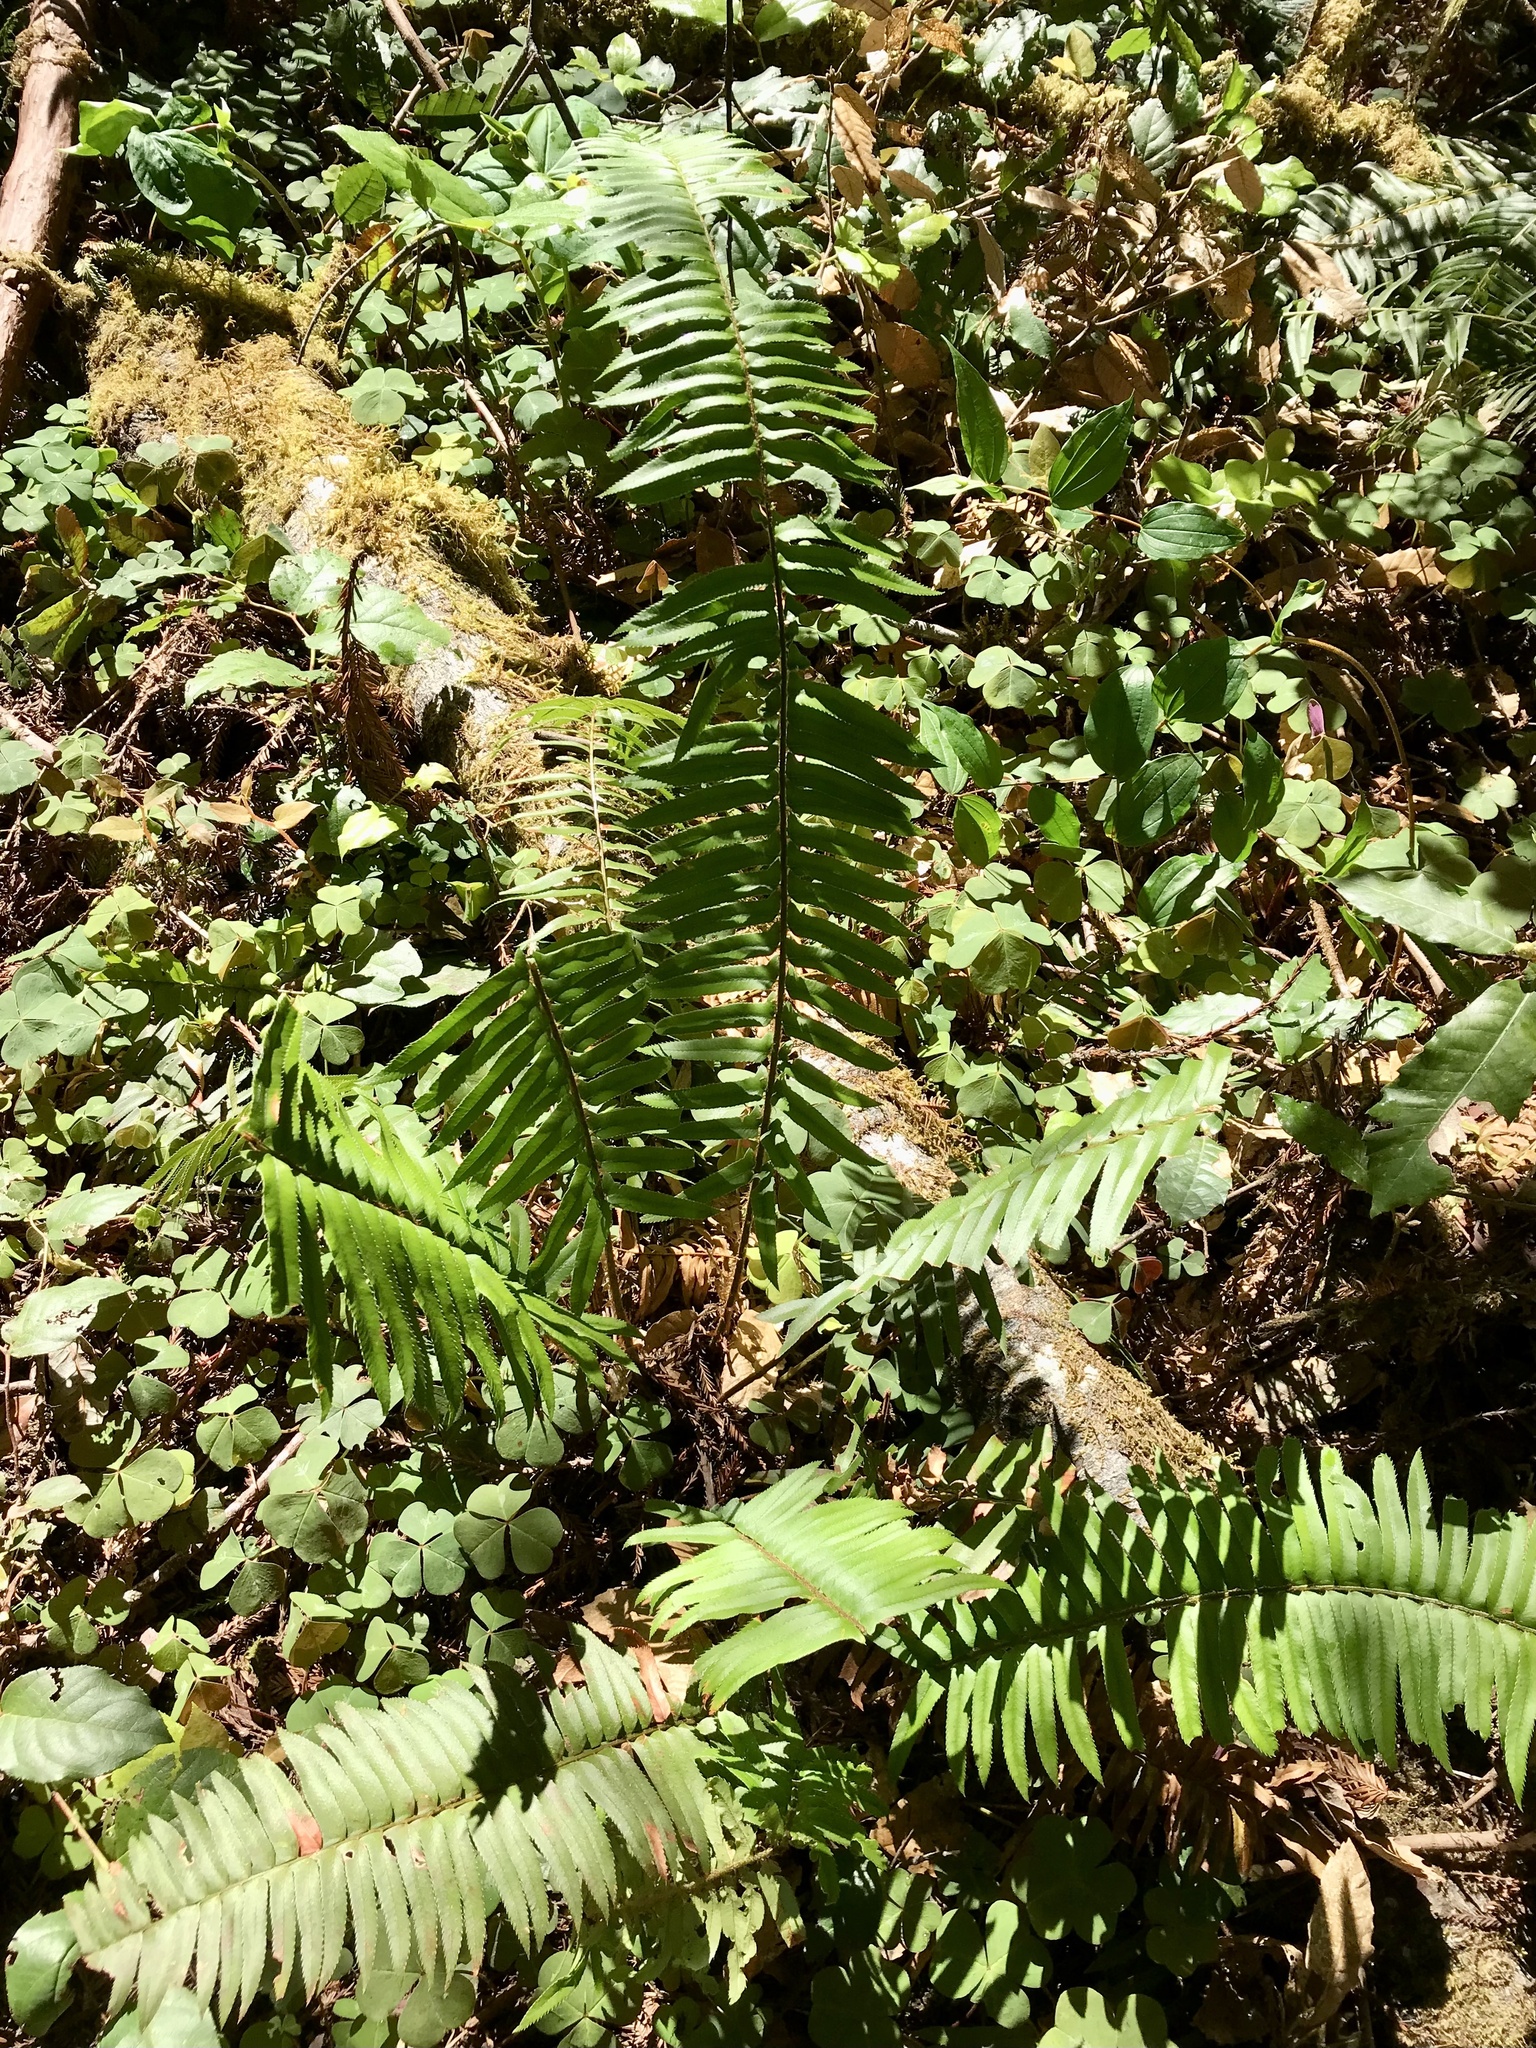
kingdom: Plantae
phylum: Tracheophyta
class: Polypodiopsida
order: Polypodiales
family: Dryopteridaceae
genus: Polystichum
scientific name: Polystichum munitum
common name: Western sword-fern
